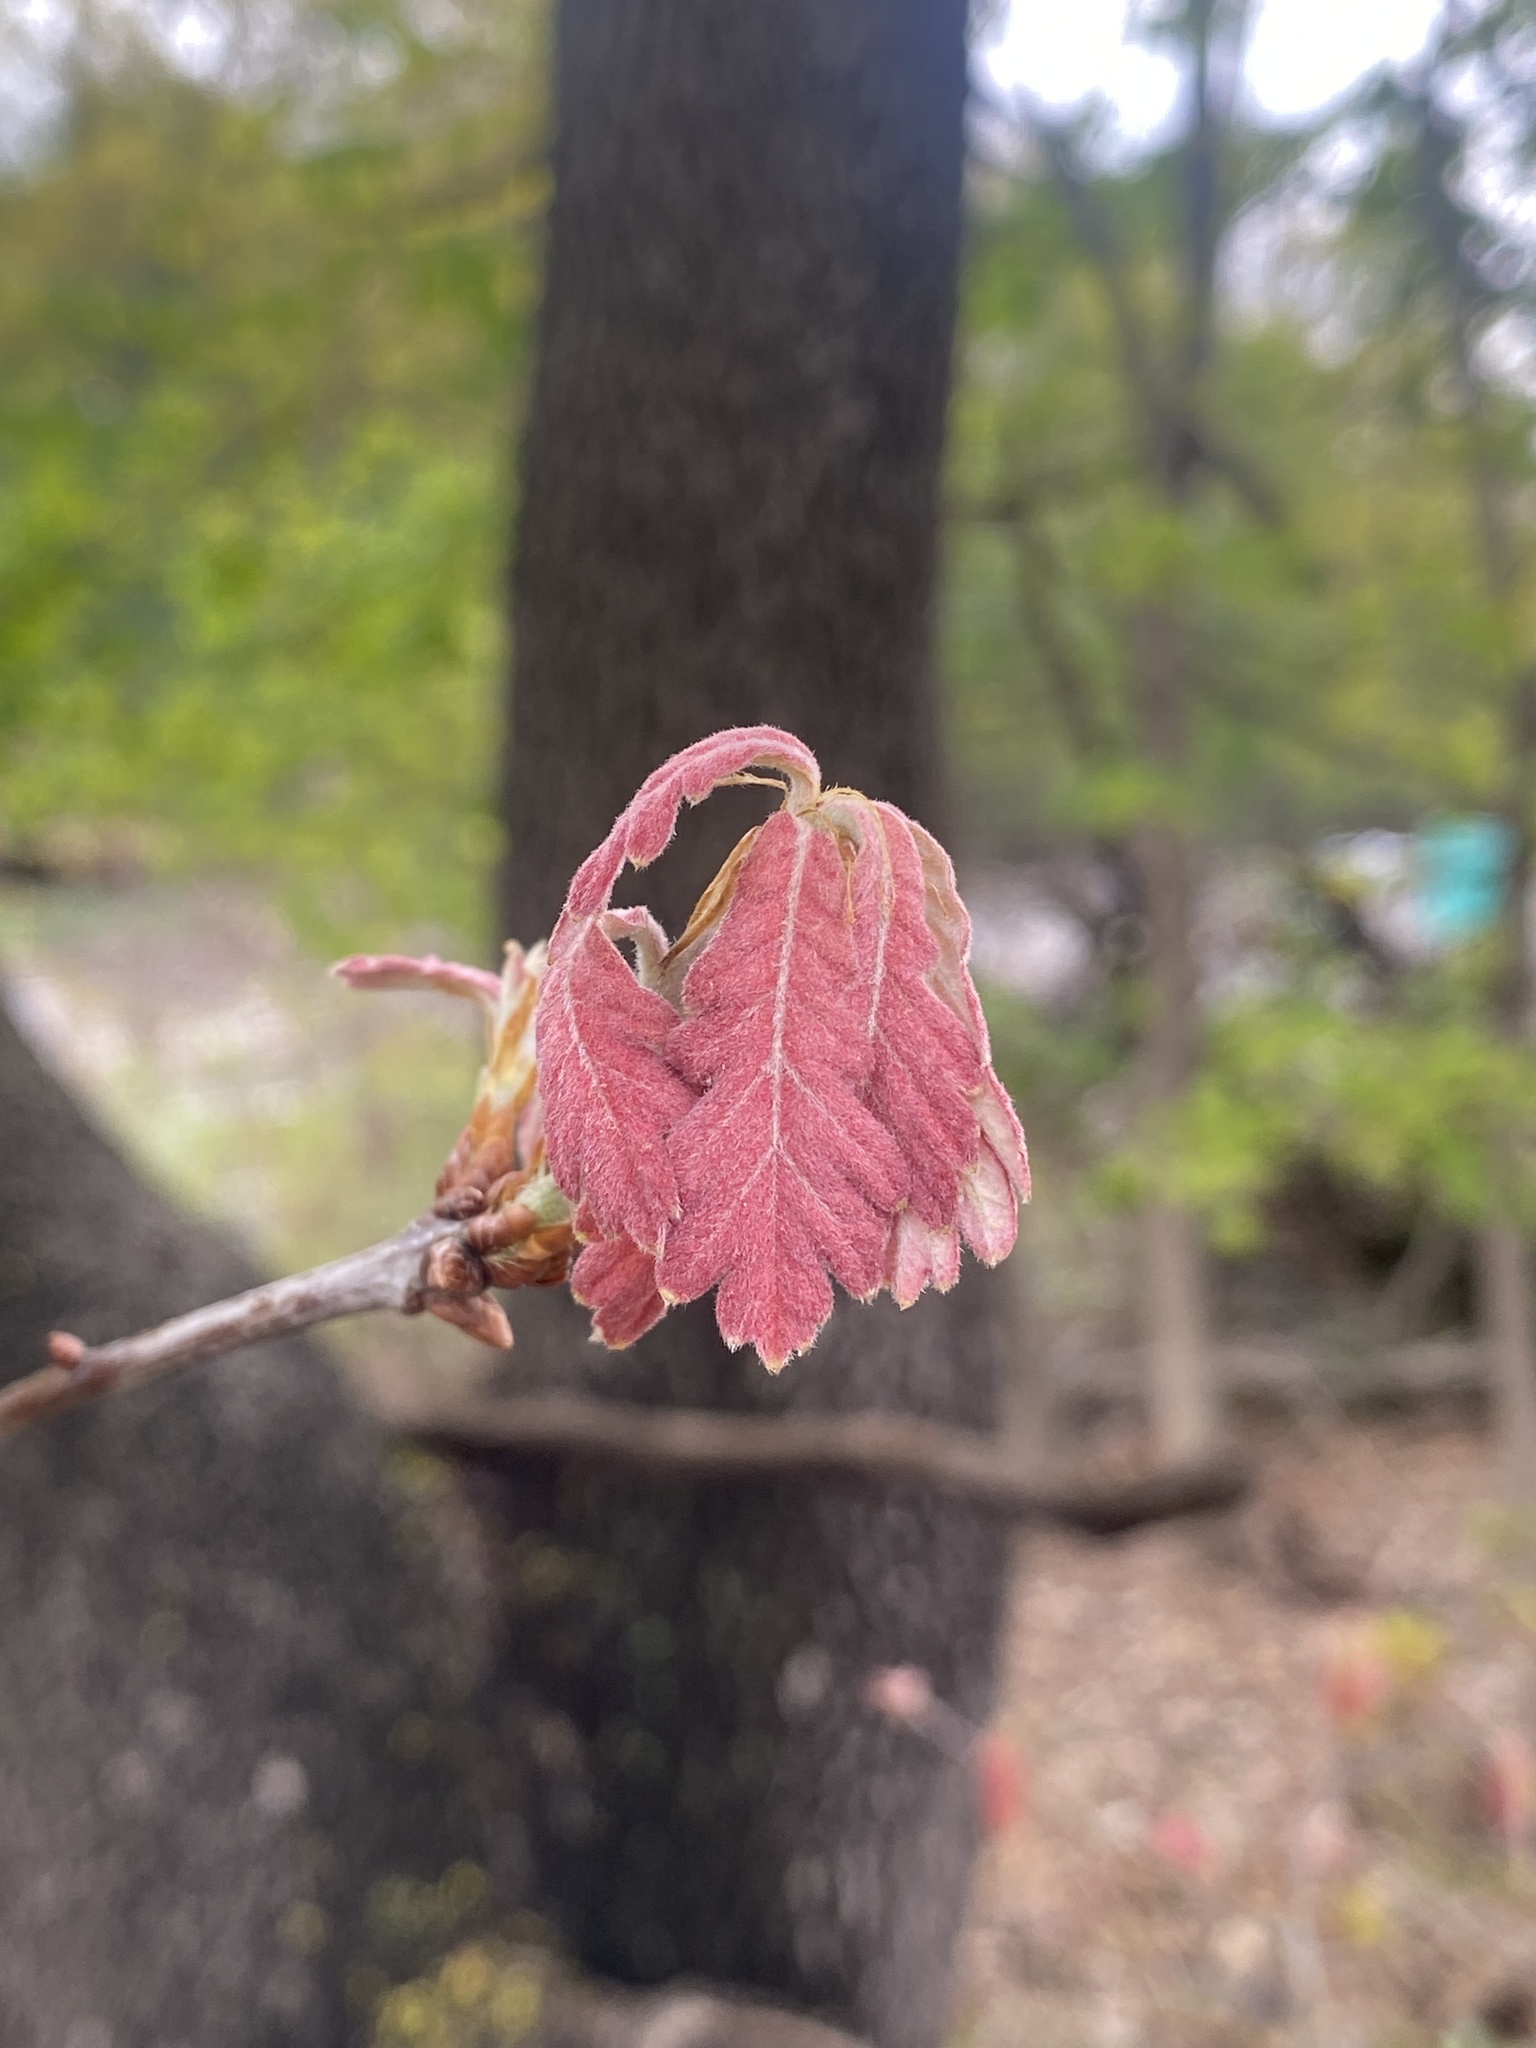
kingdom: Plantae
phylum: Tracheophyta
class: Magnoliopsida
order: Fagales
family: Fagaceae
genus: Quercus
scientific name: Quercus alba
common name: White oak
